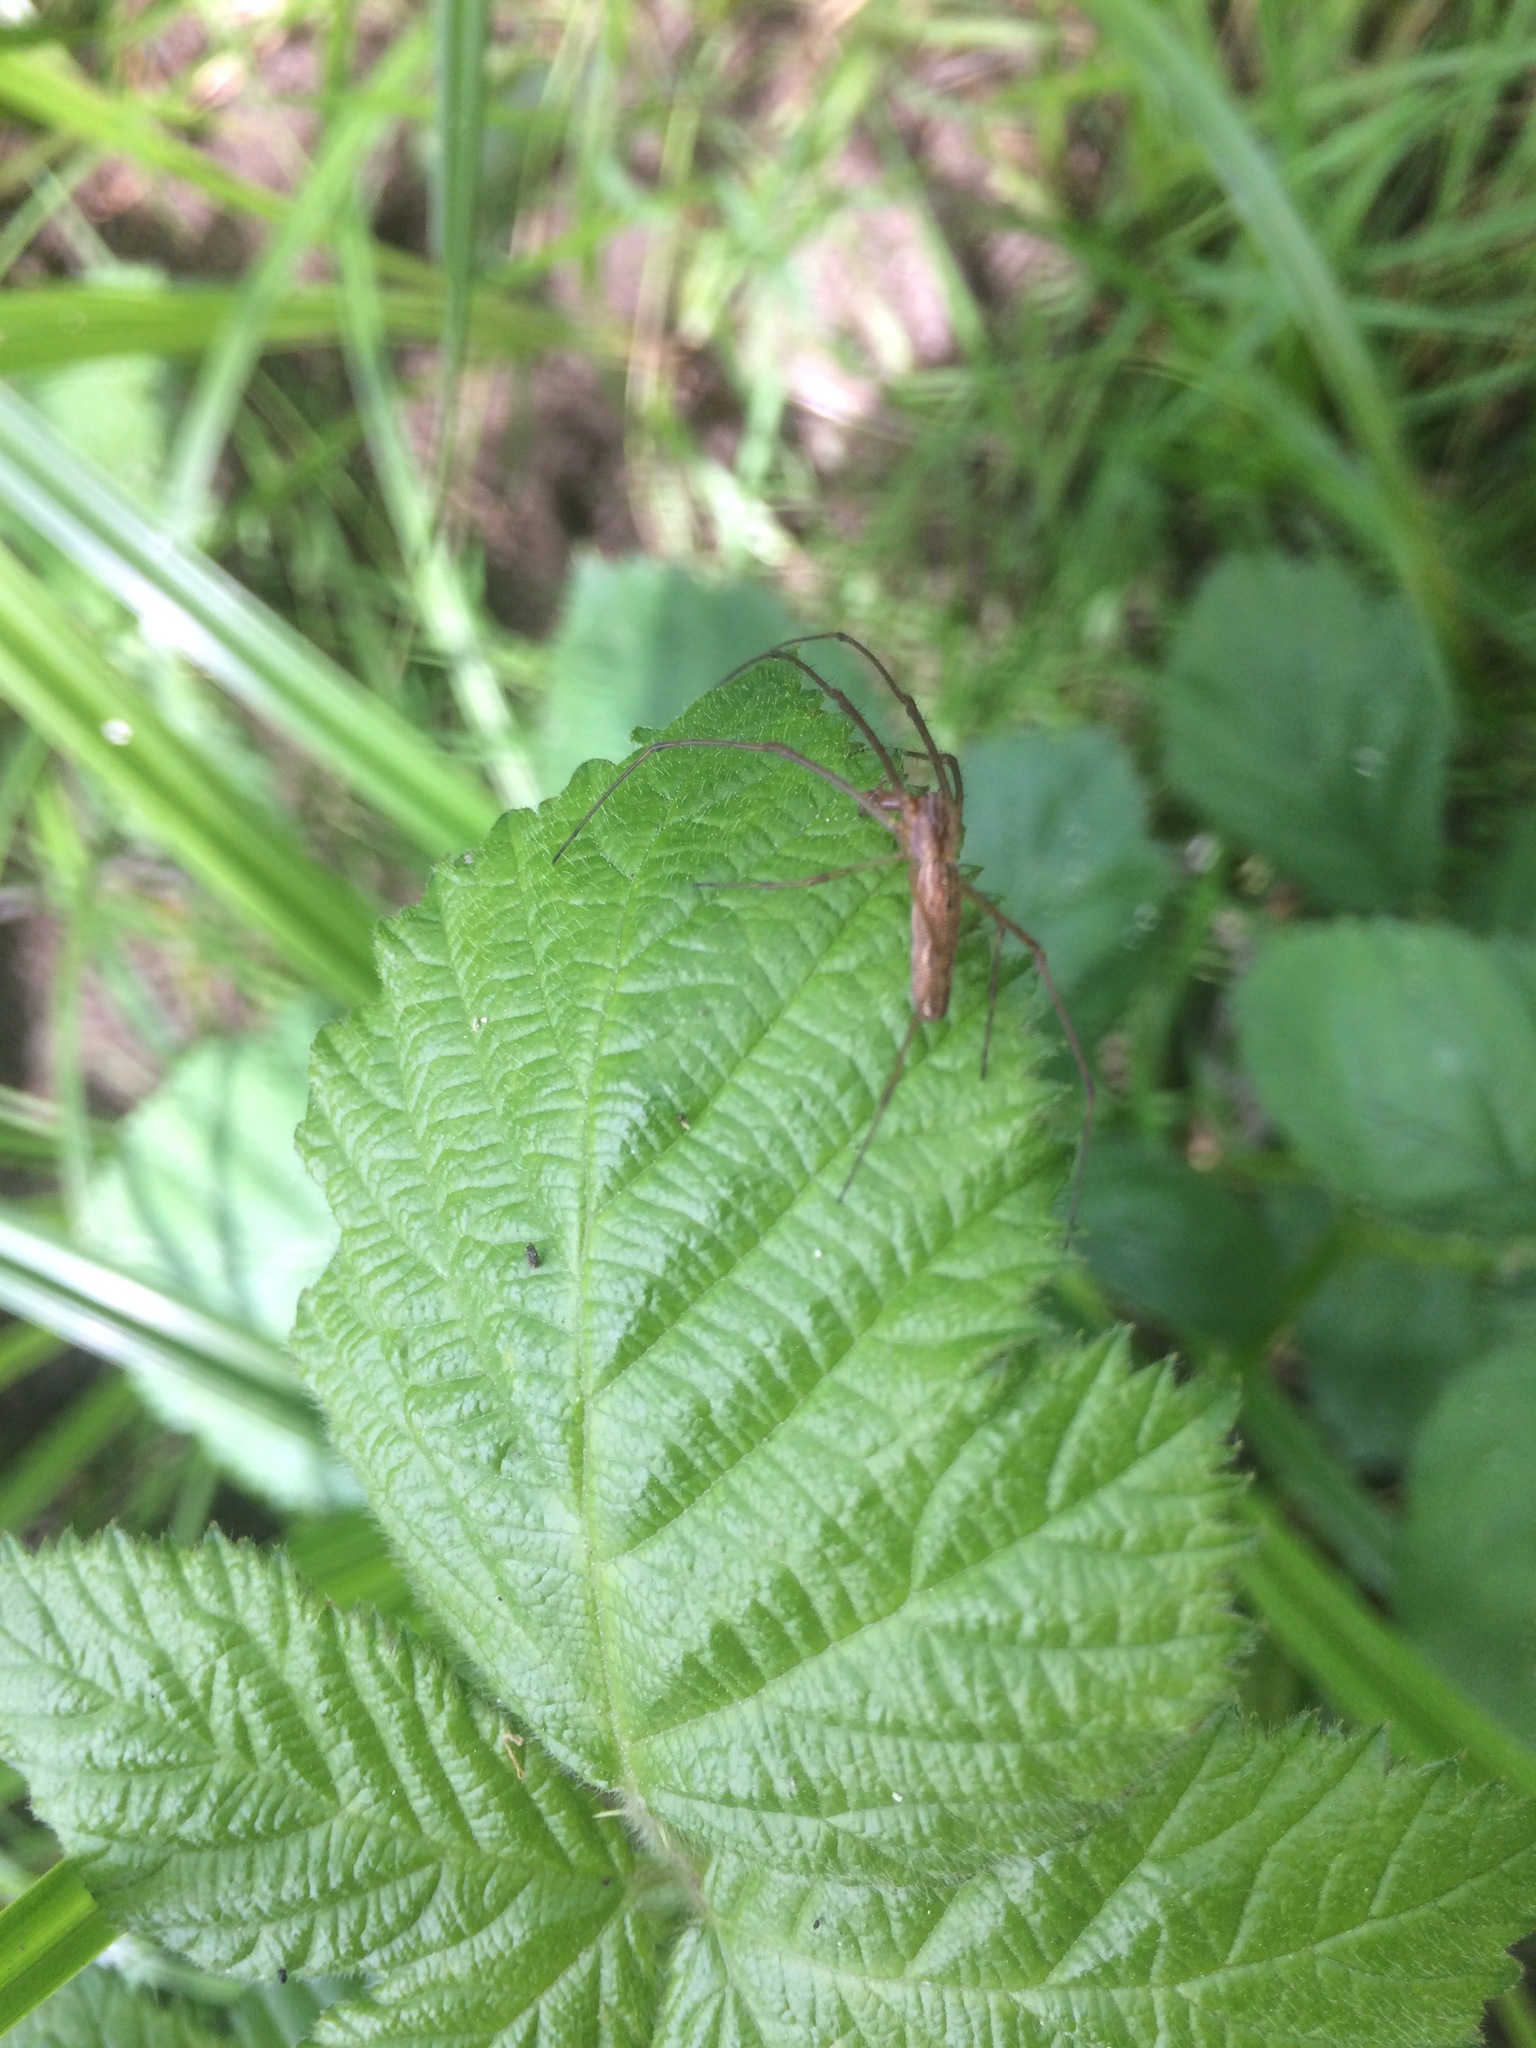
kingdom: Animalia
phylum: Arthropoda
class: Arachnida
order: Araneae
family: Tetragnathidae
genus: Tetragnatha
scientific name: Tetragnatha
